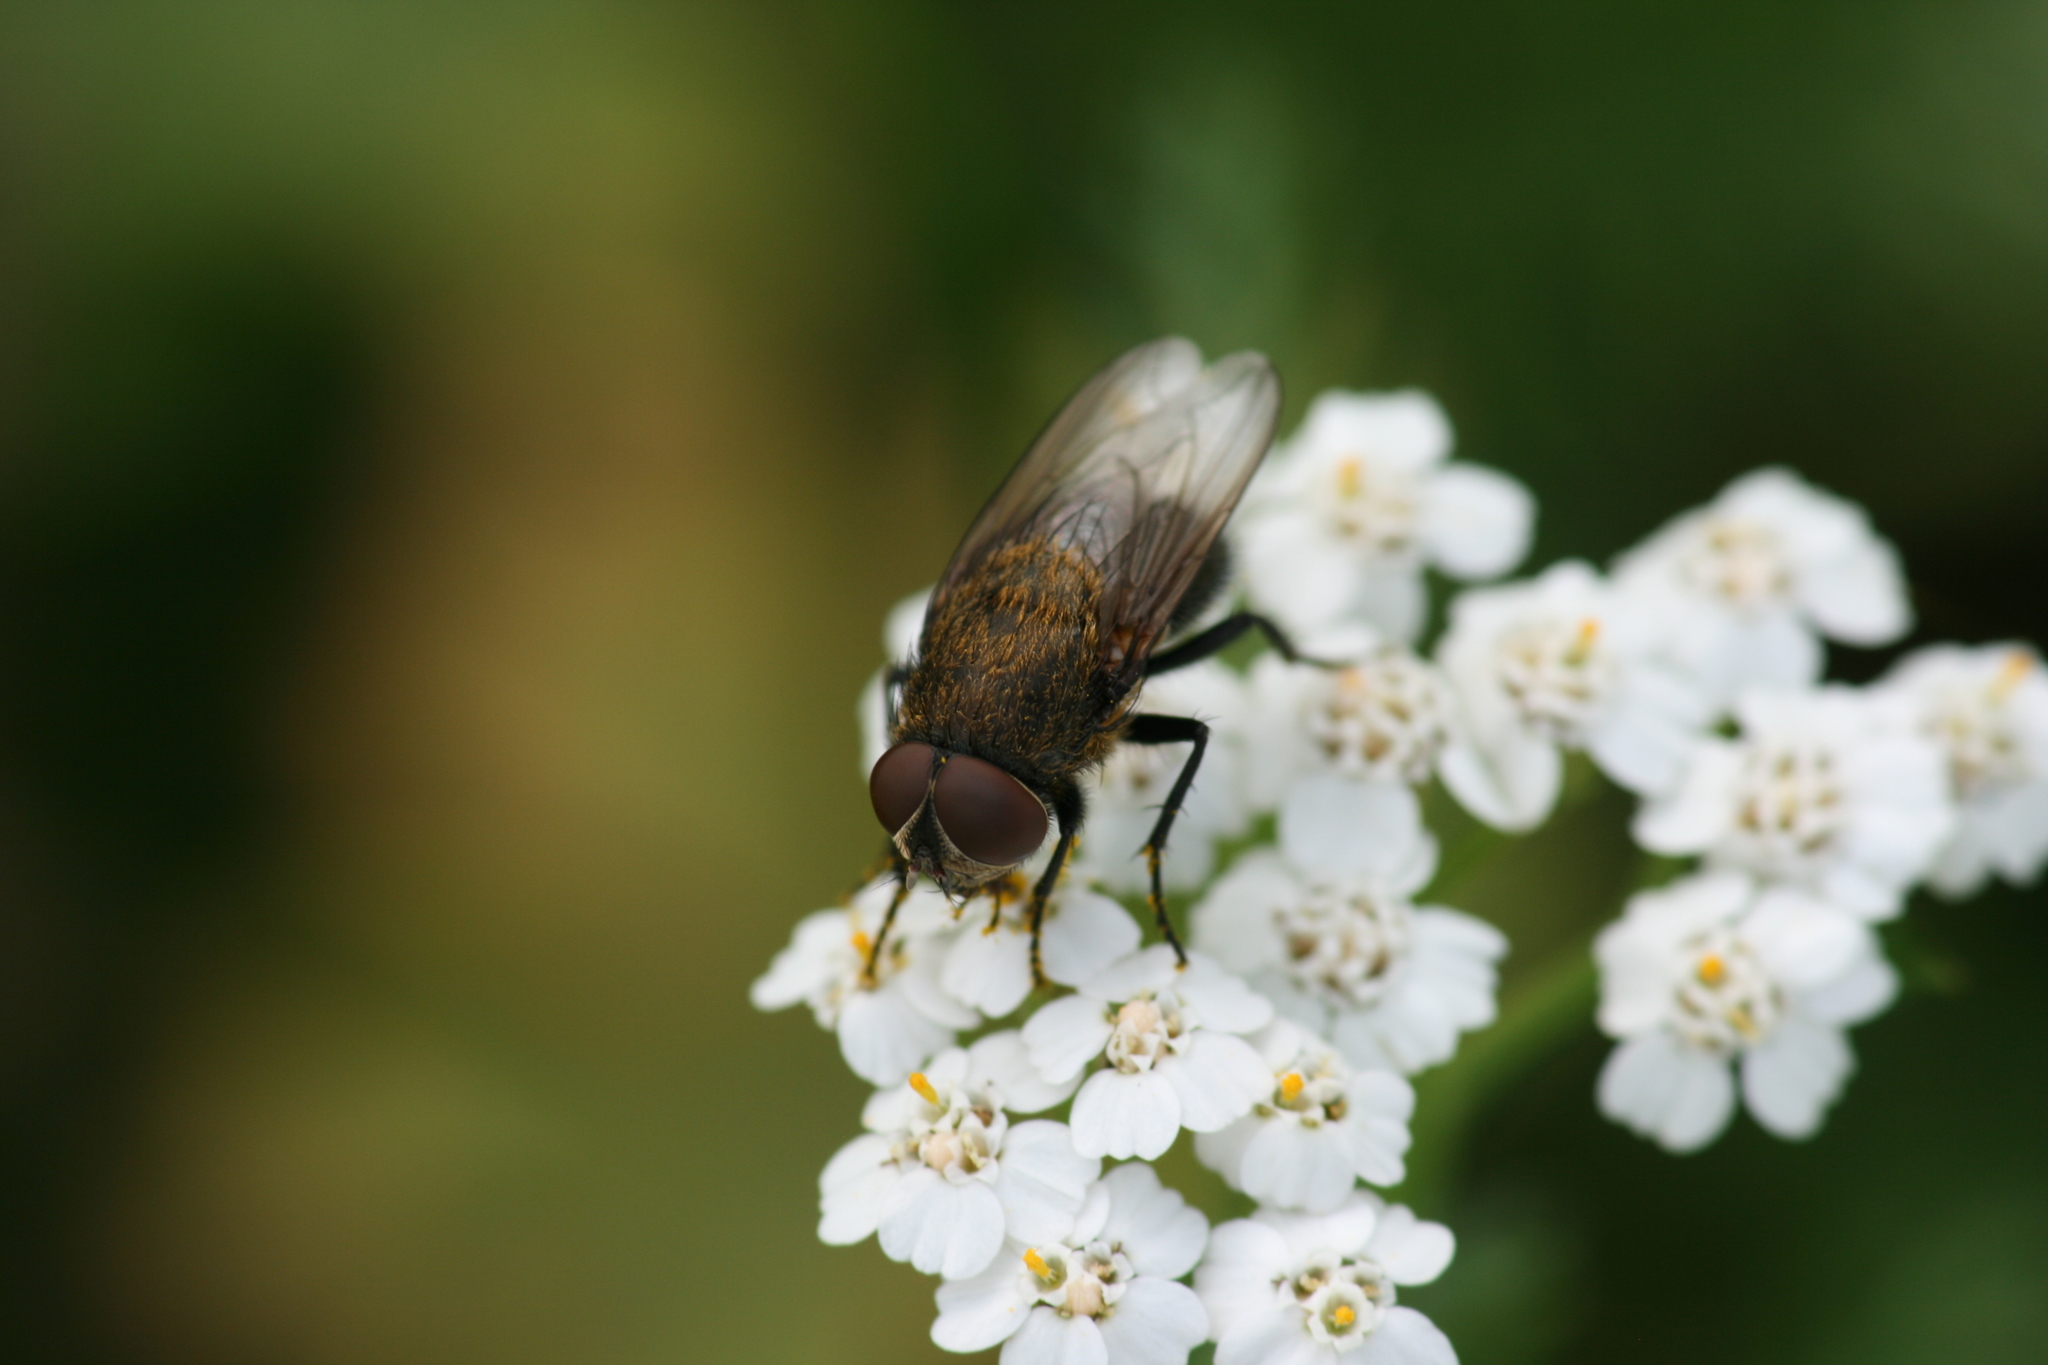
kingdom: Animalia
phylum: Arthropoda
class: Insecta
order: Diptera
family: Polleniidae
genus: Pollenia
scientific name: Pollenia amentaria
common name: Black-bellied clusterfly
